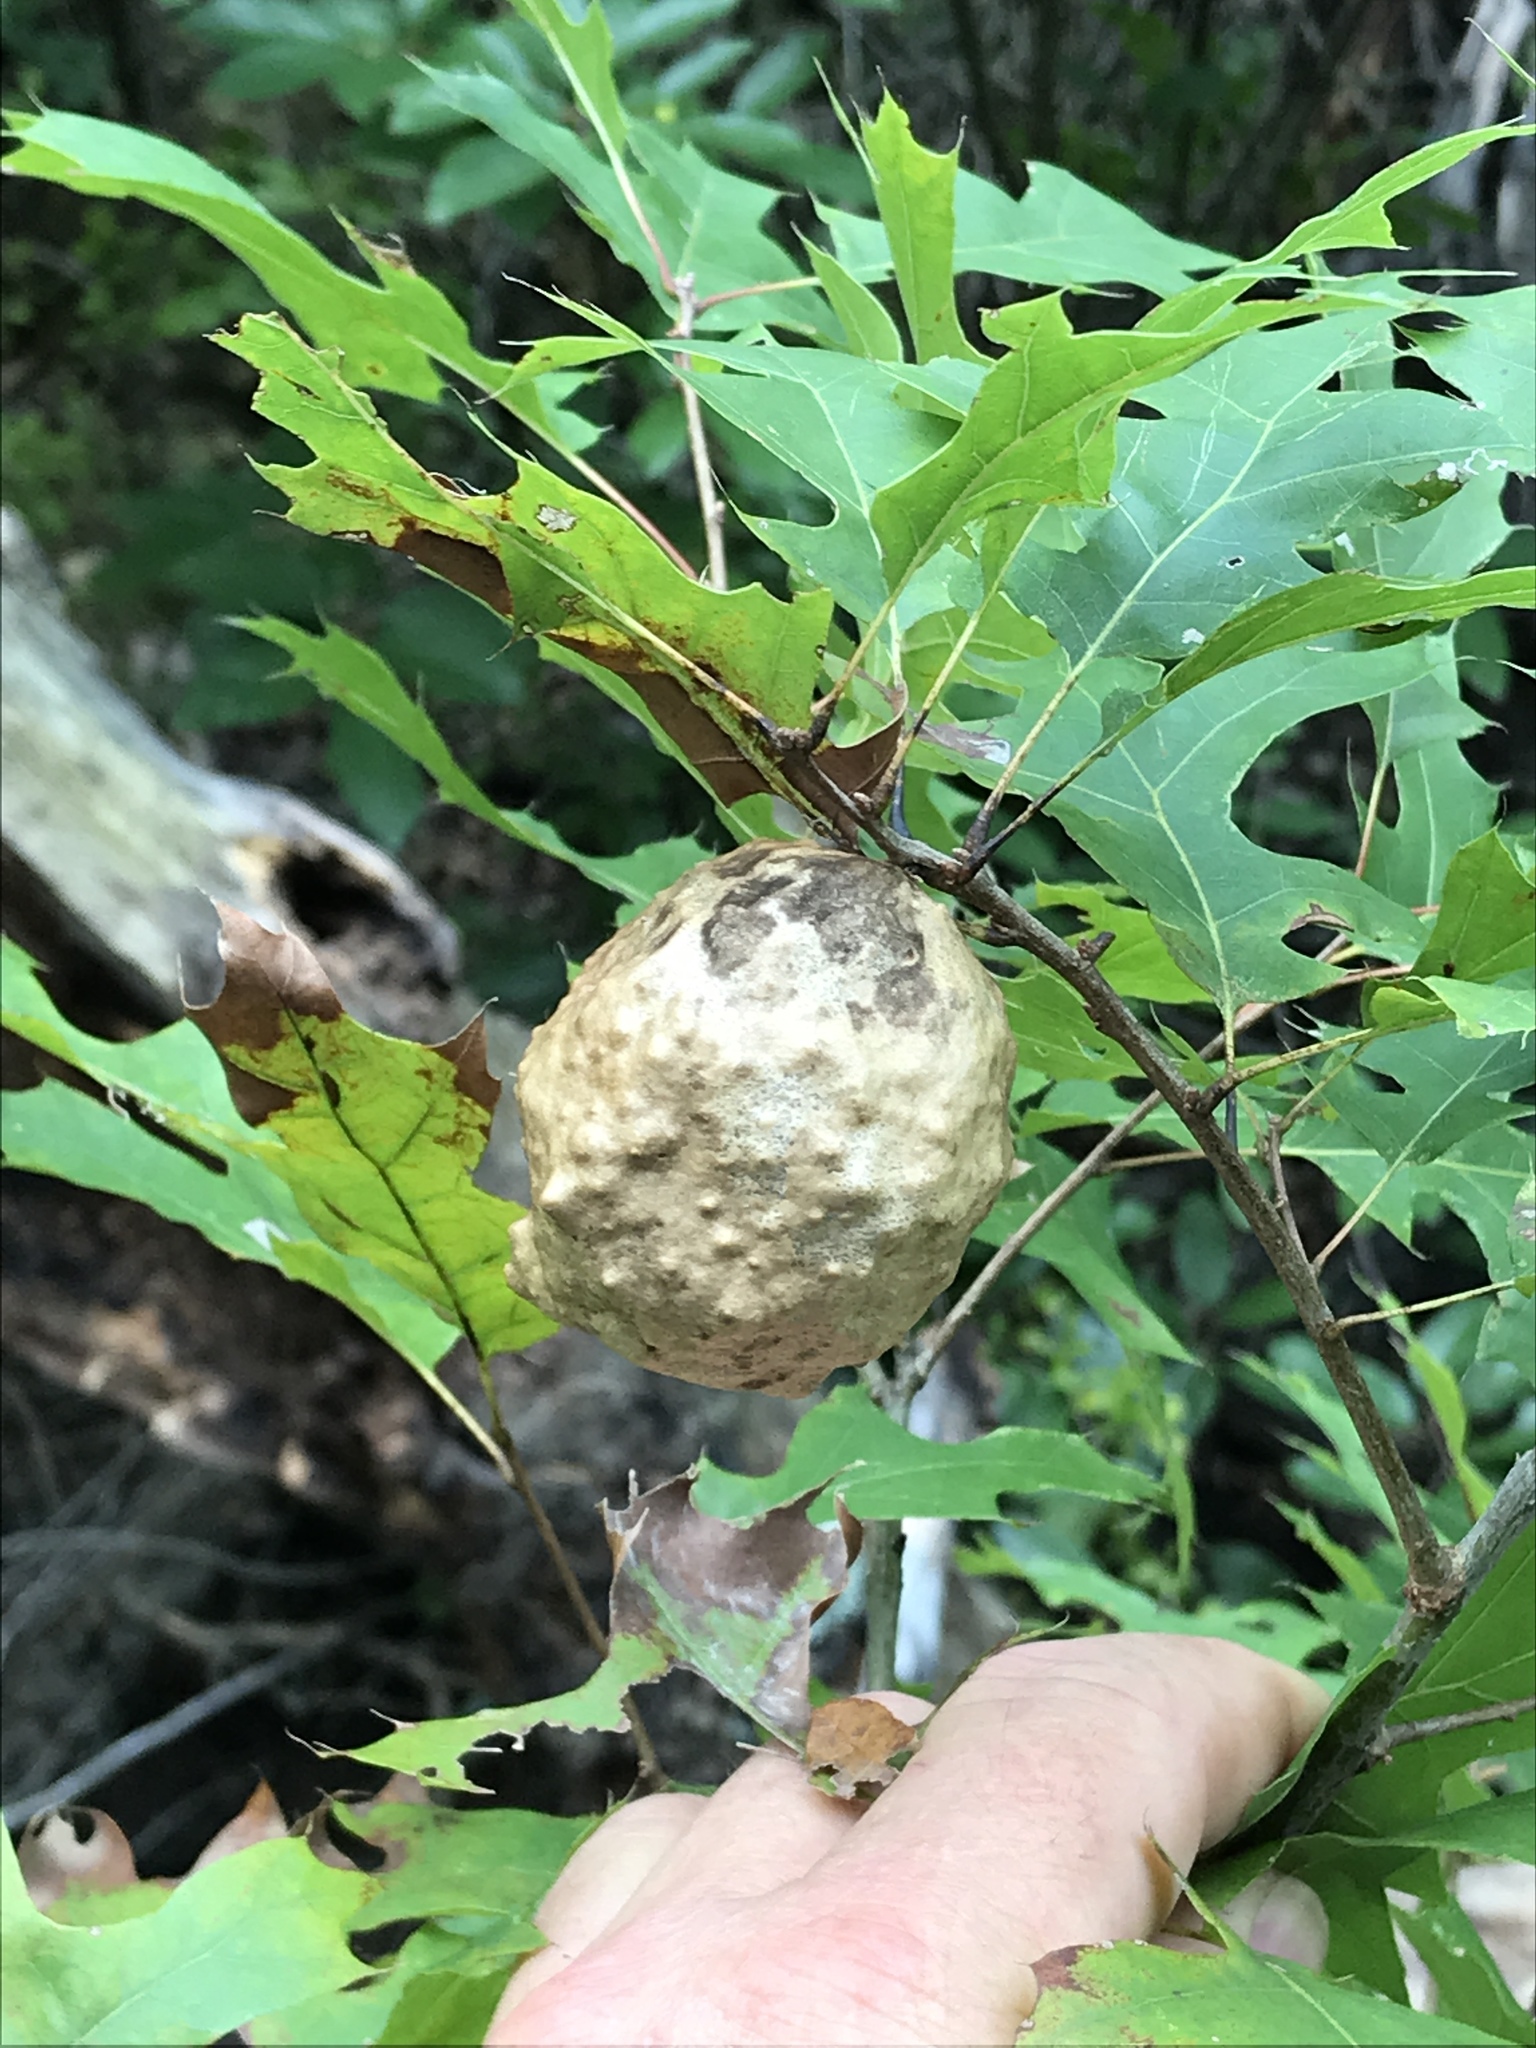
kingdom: Animalia
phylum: Arthropoda
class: Insecta
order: Hymenoptera
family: Cynipidae
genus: Amphibolips
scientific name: Amphibolips
